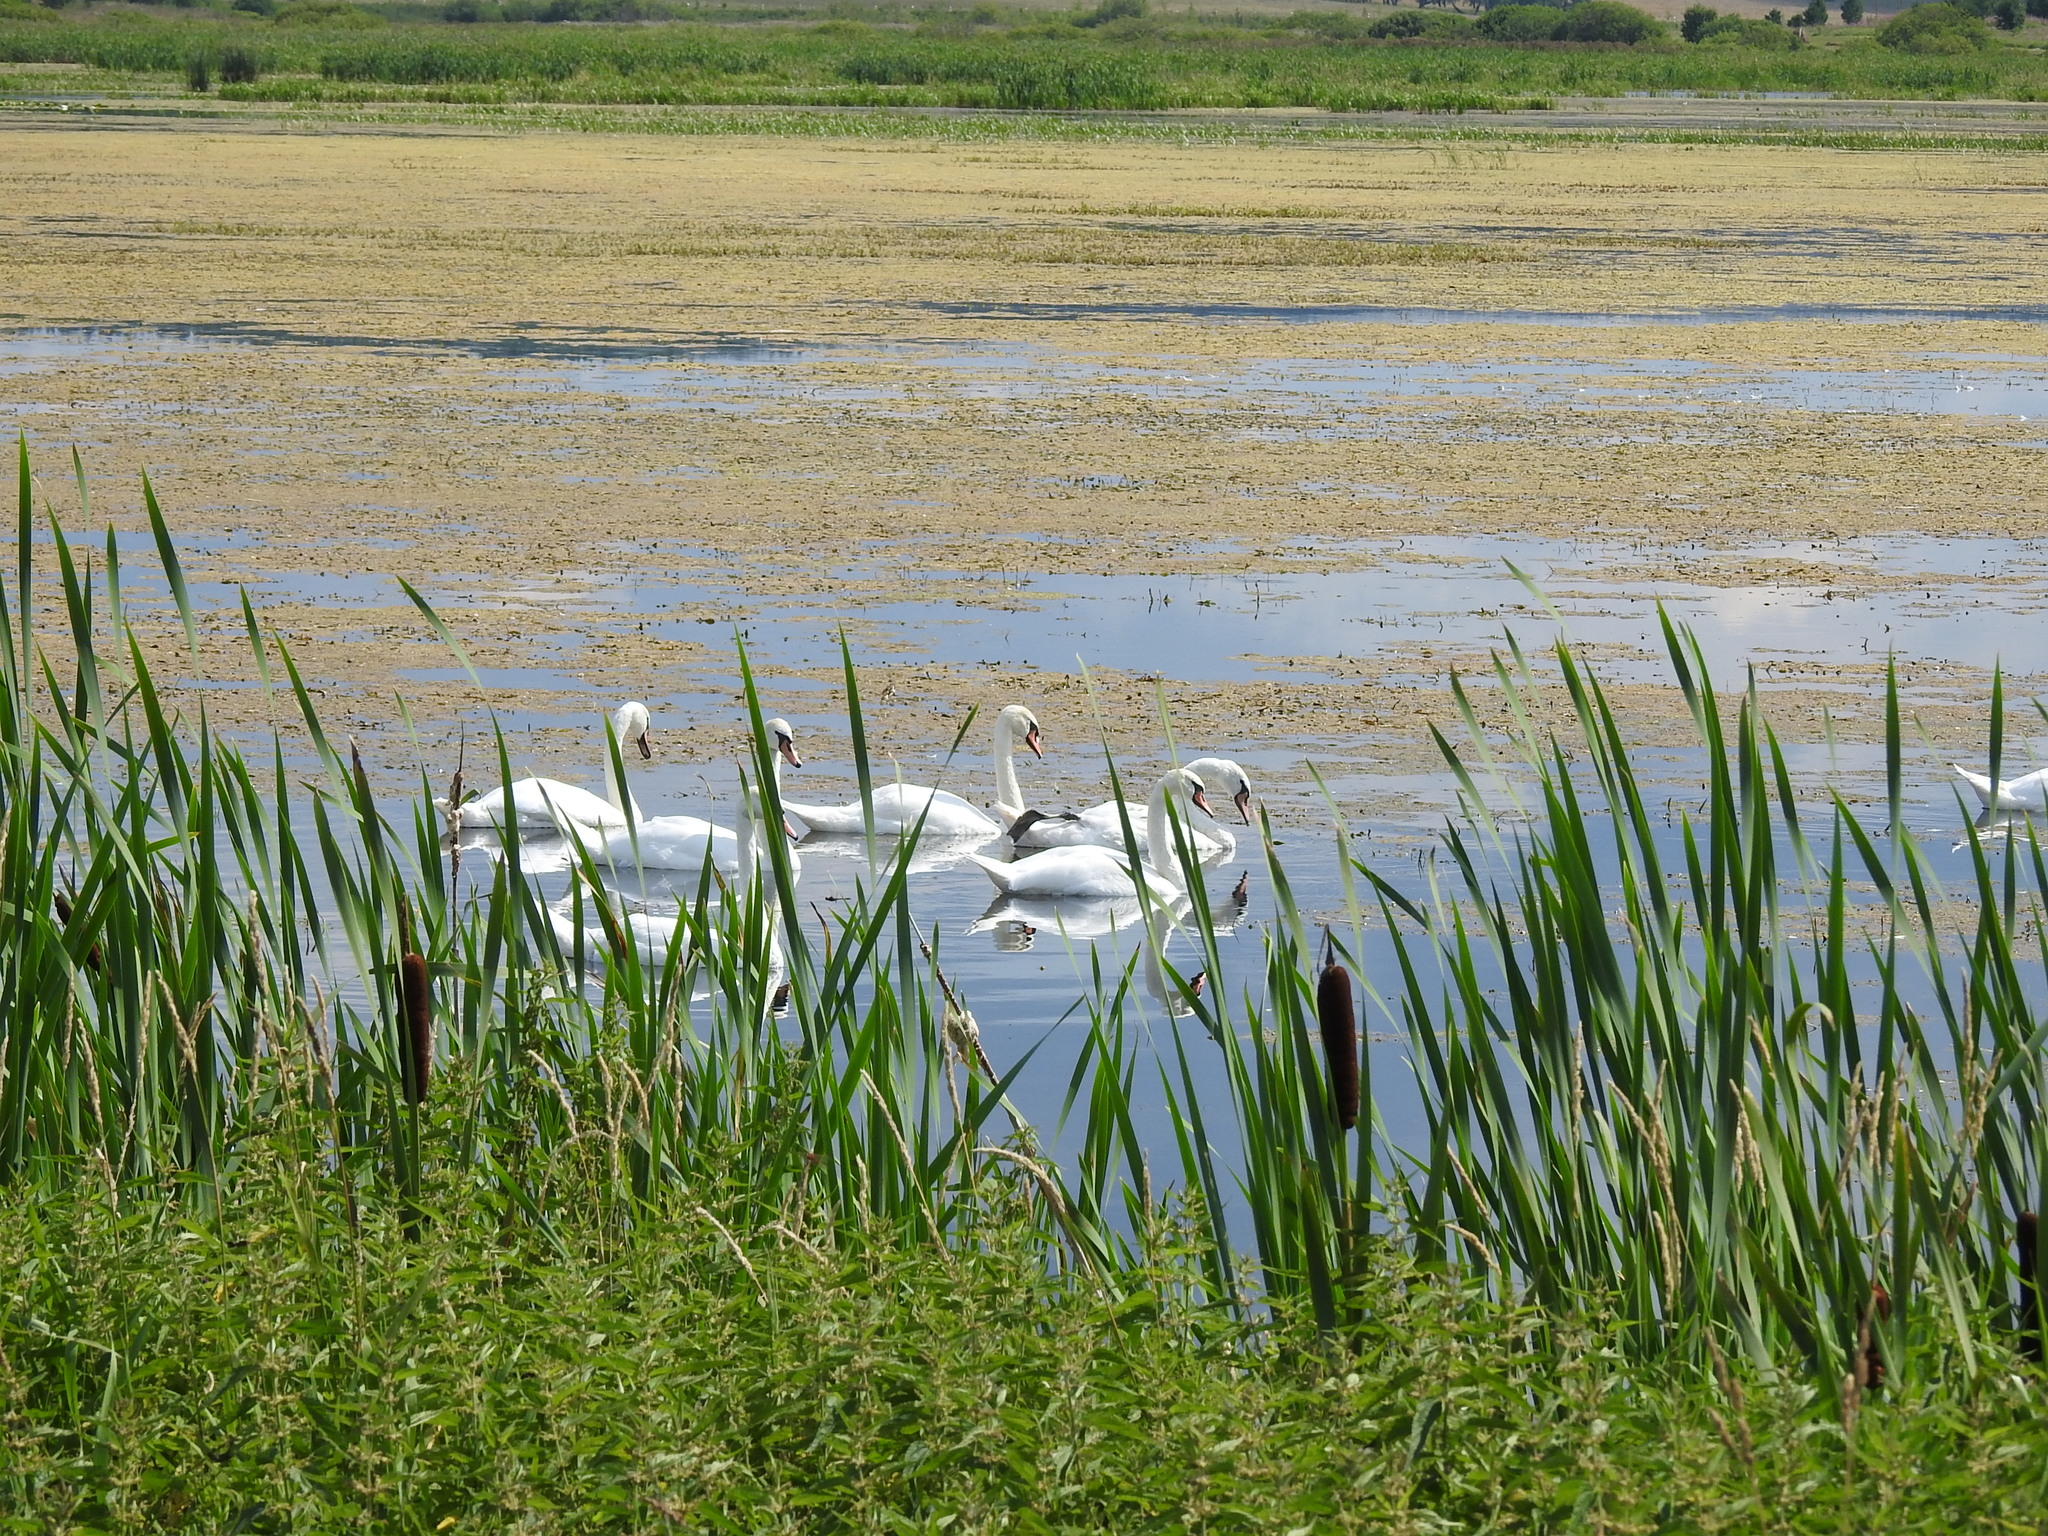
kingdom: Animalia
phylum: Chordata
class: Aves
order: Anseriformes
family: Anatidae
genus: Cygnus
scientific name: Cygnus olor
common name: Mute swan
